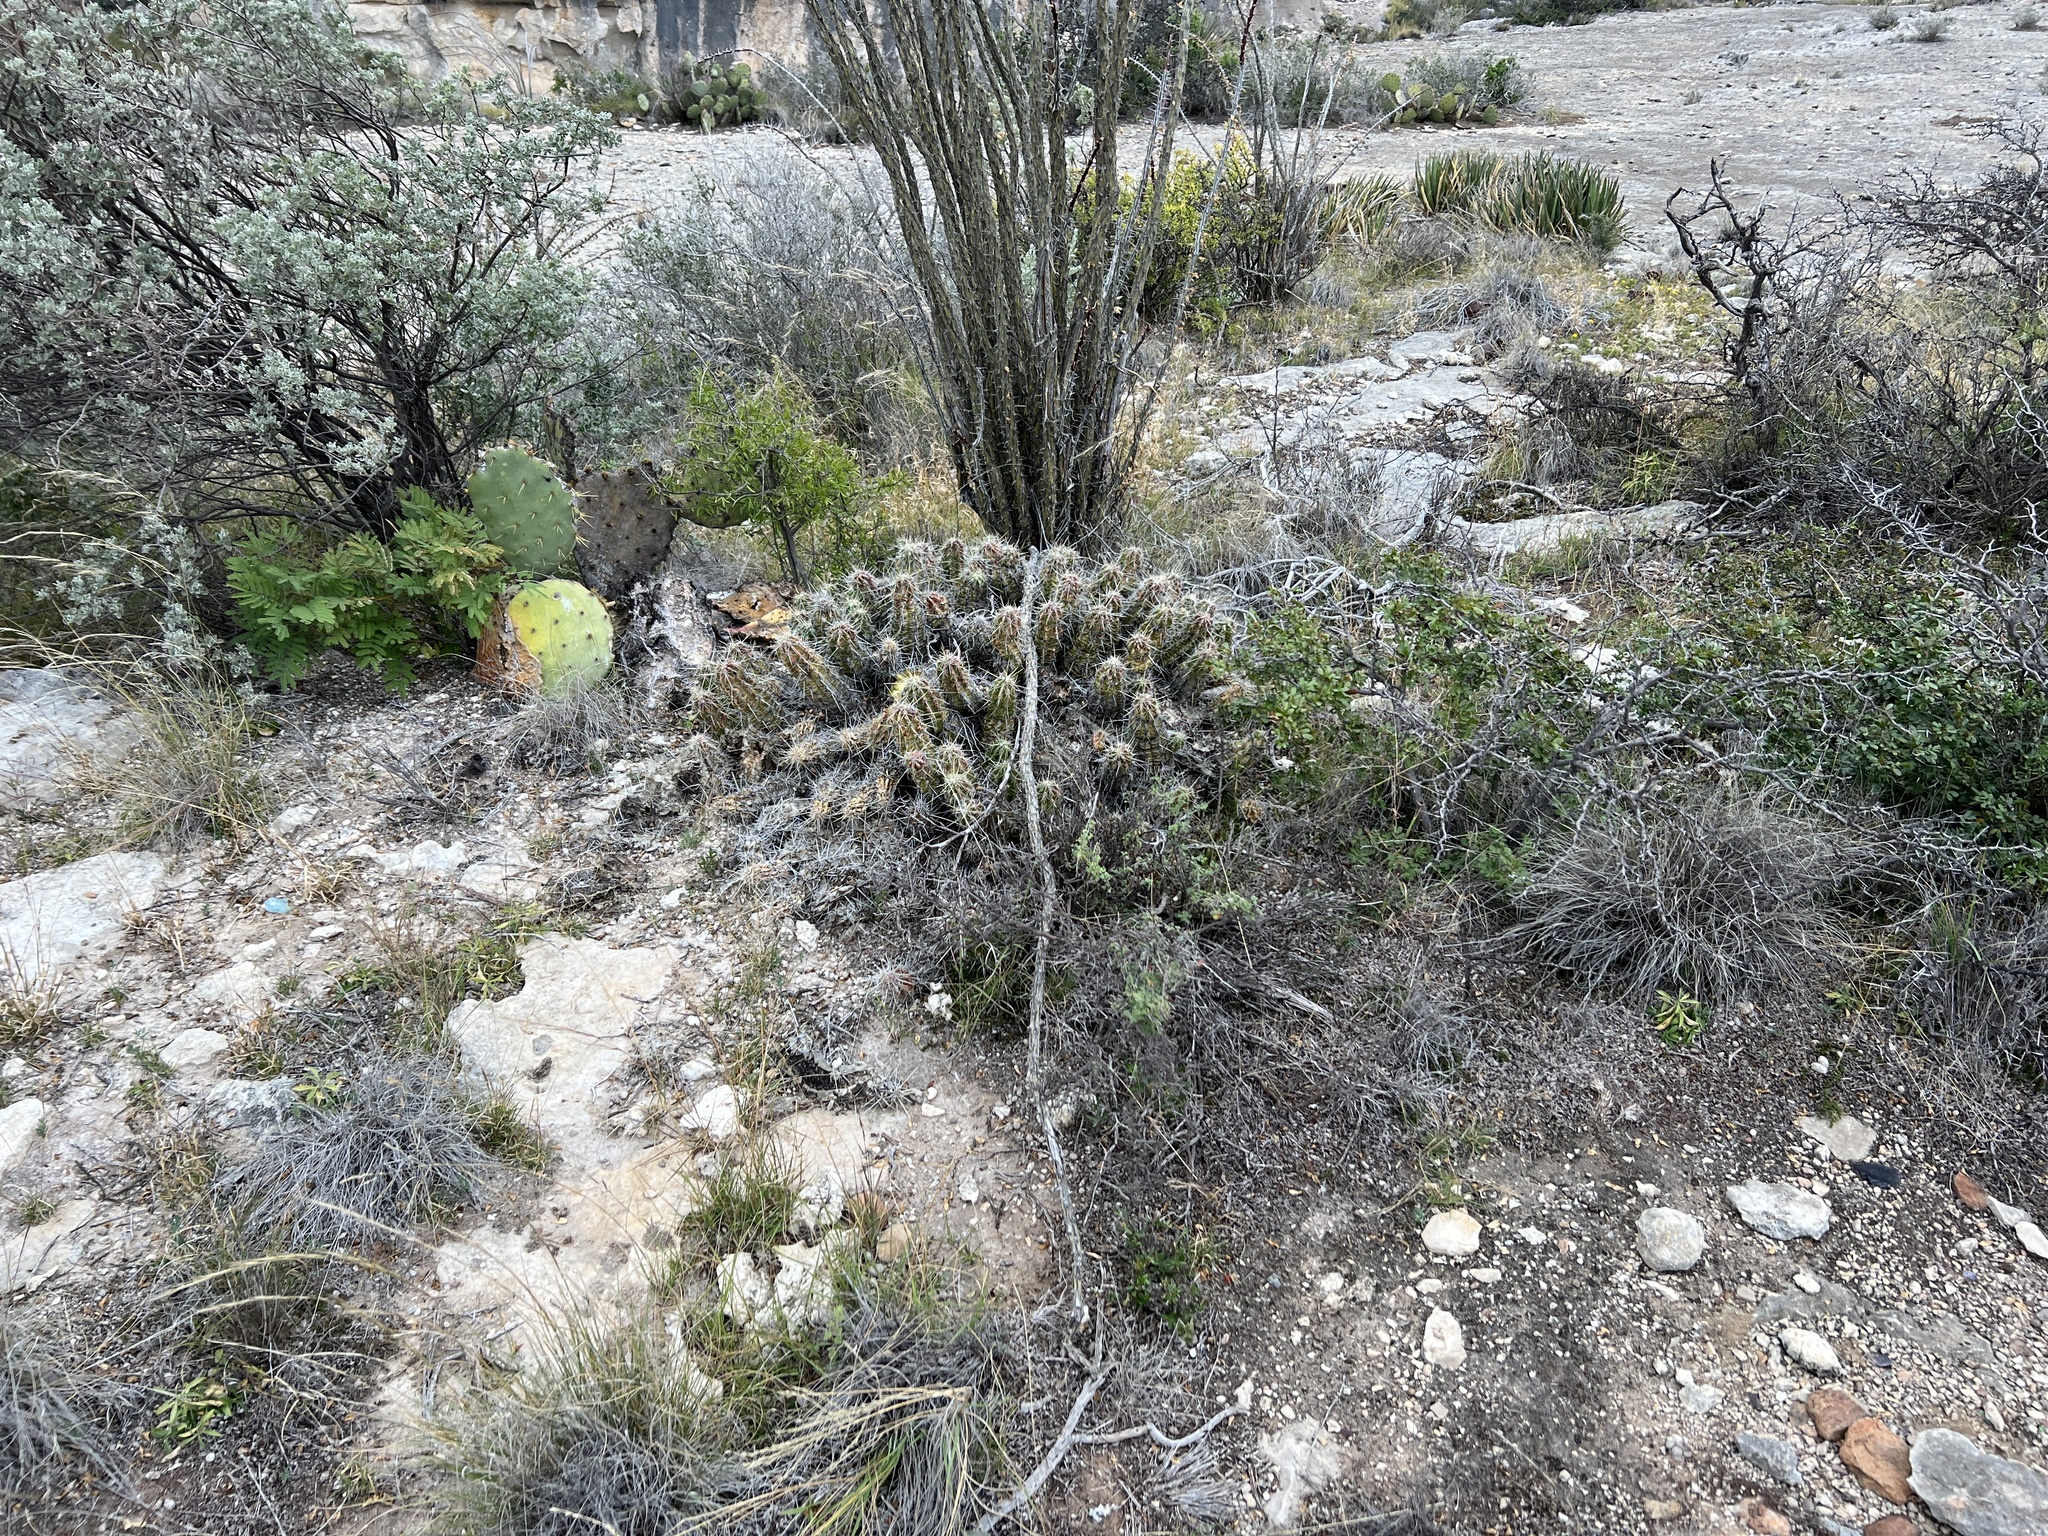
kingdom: Plantae
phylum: Tracheophyta
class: Magnoliopsida
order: Caryophyllales
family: Cactaceae
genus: Echinocereus
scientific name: Echinocereus enneacanthus
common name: Pitaya
